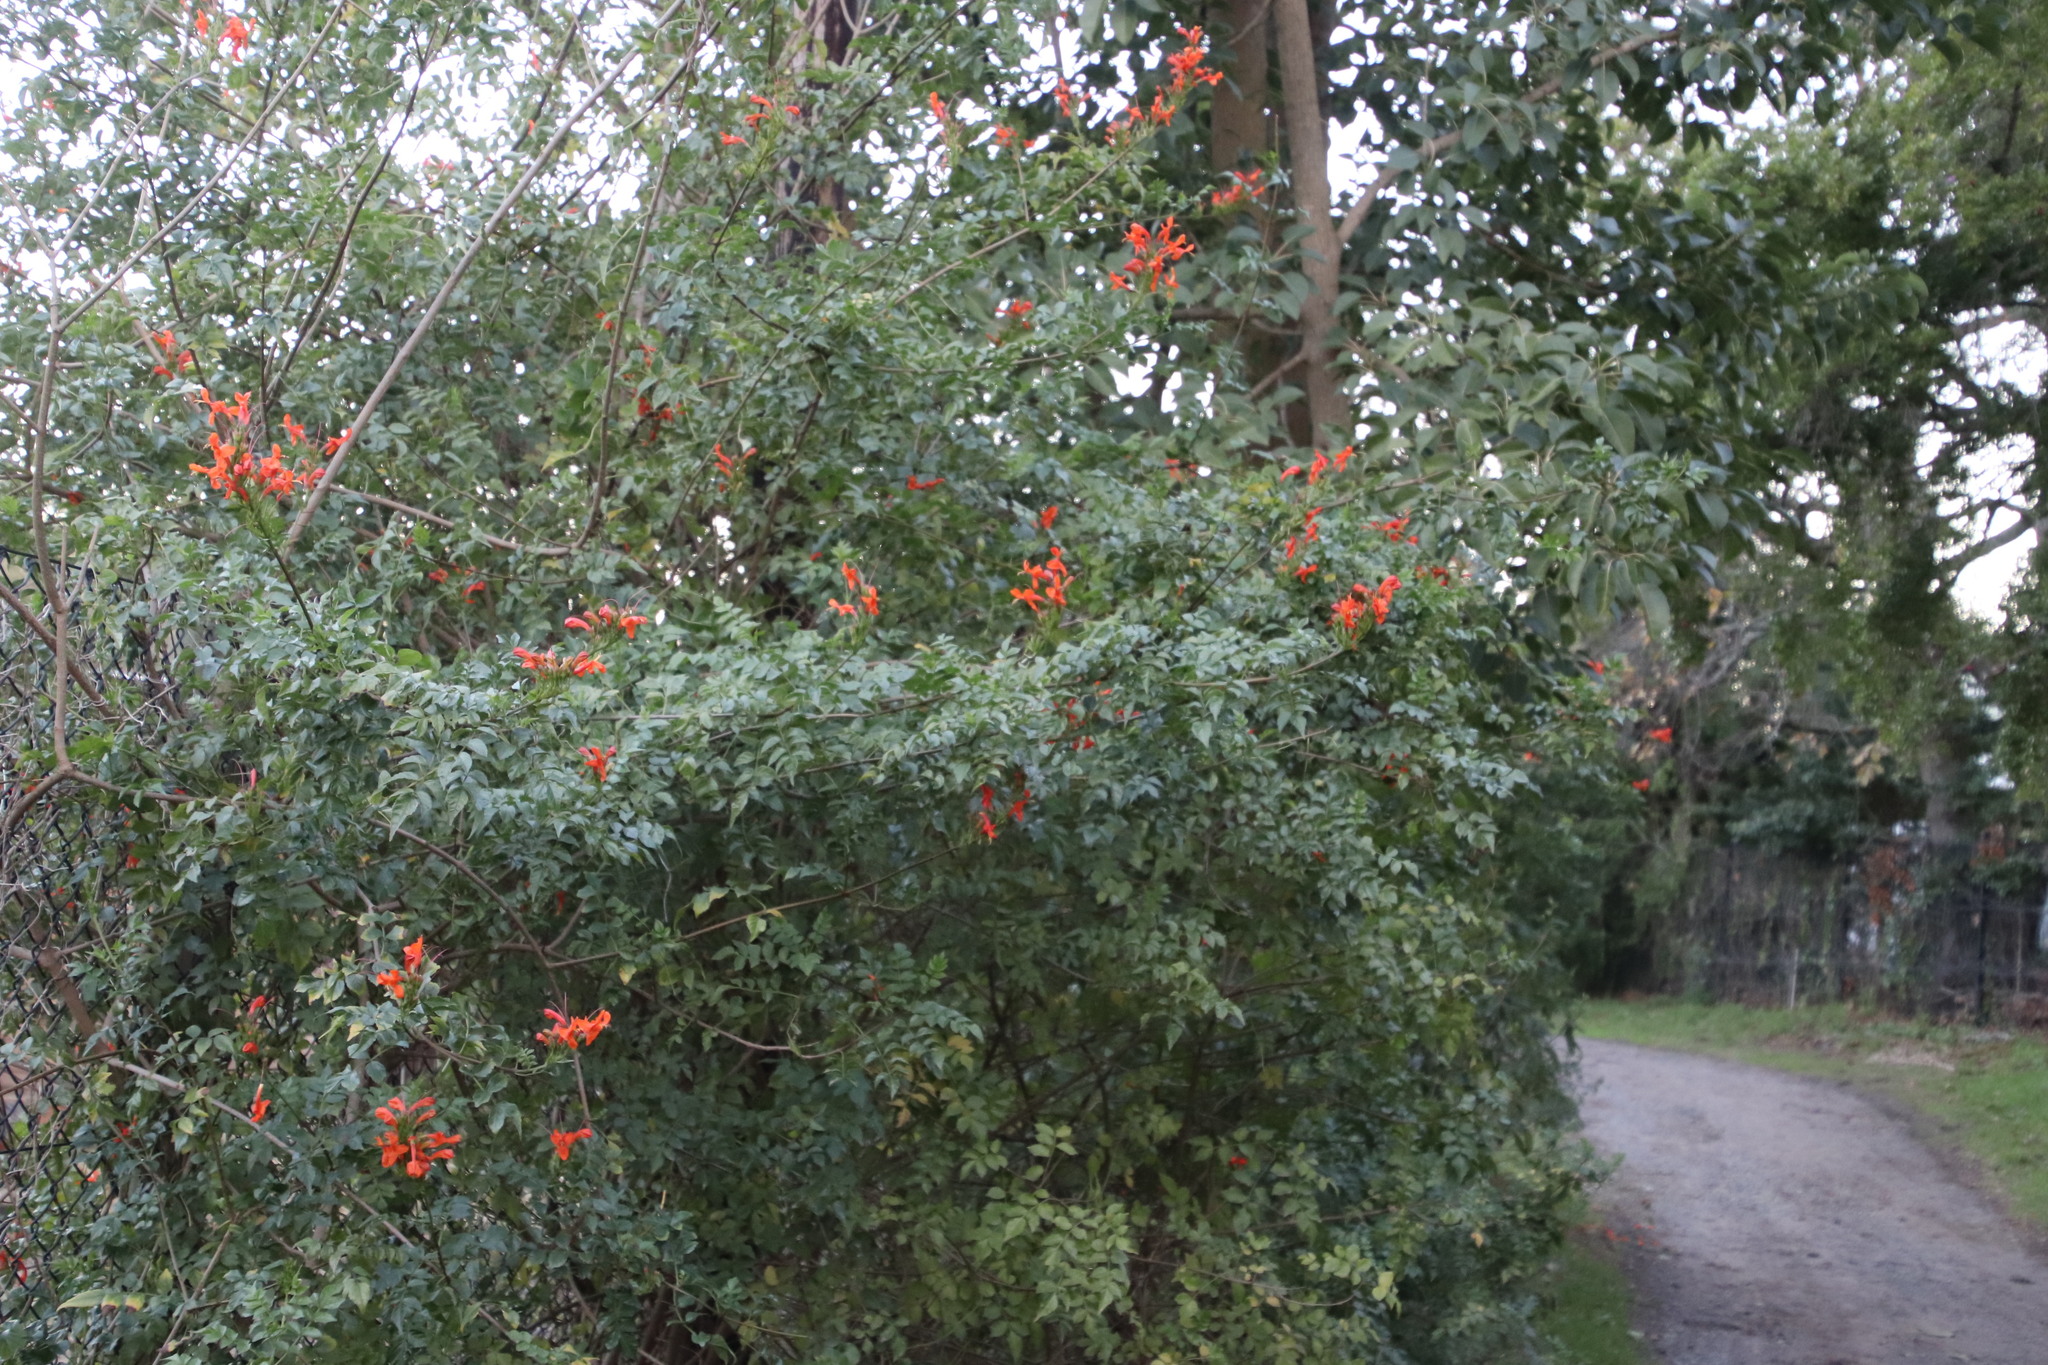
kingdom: Plantae
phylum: Tracheophyta
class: Magnoliopsida
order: Lamiales
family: Bignoniaceae
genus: Tecomaria
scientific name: Tecomaria capensis
